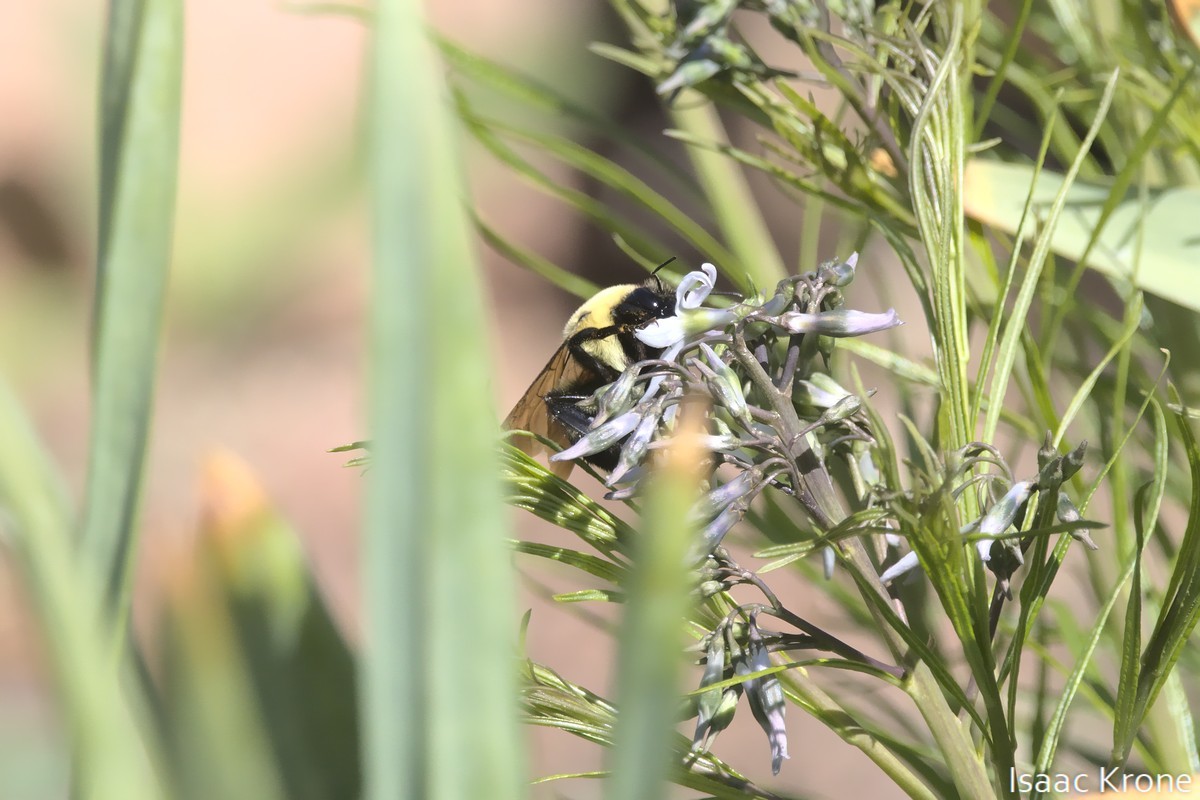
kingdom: Animalia
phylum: Arthropoda
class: Insecta
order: Hymenoptera
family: Apidae
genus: Bombus
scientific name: Bombus griseocollis
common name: Brown-belted bumble bee
